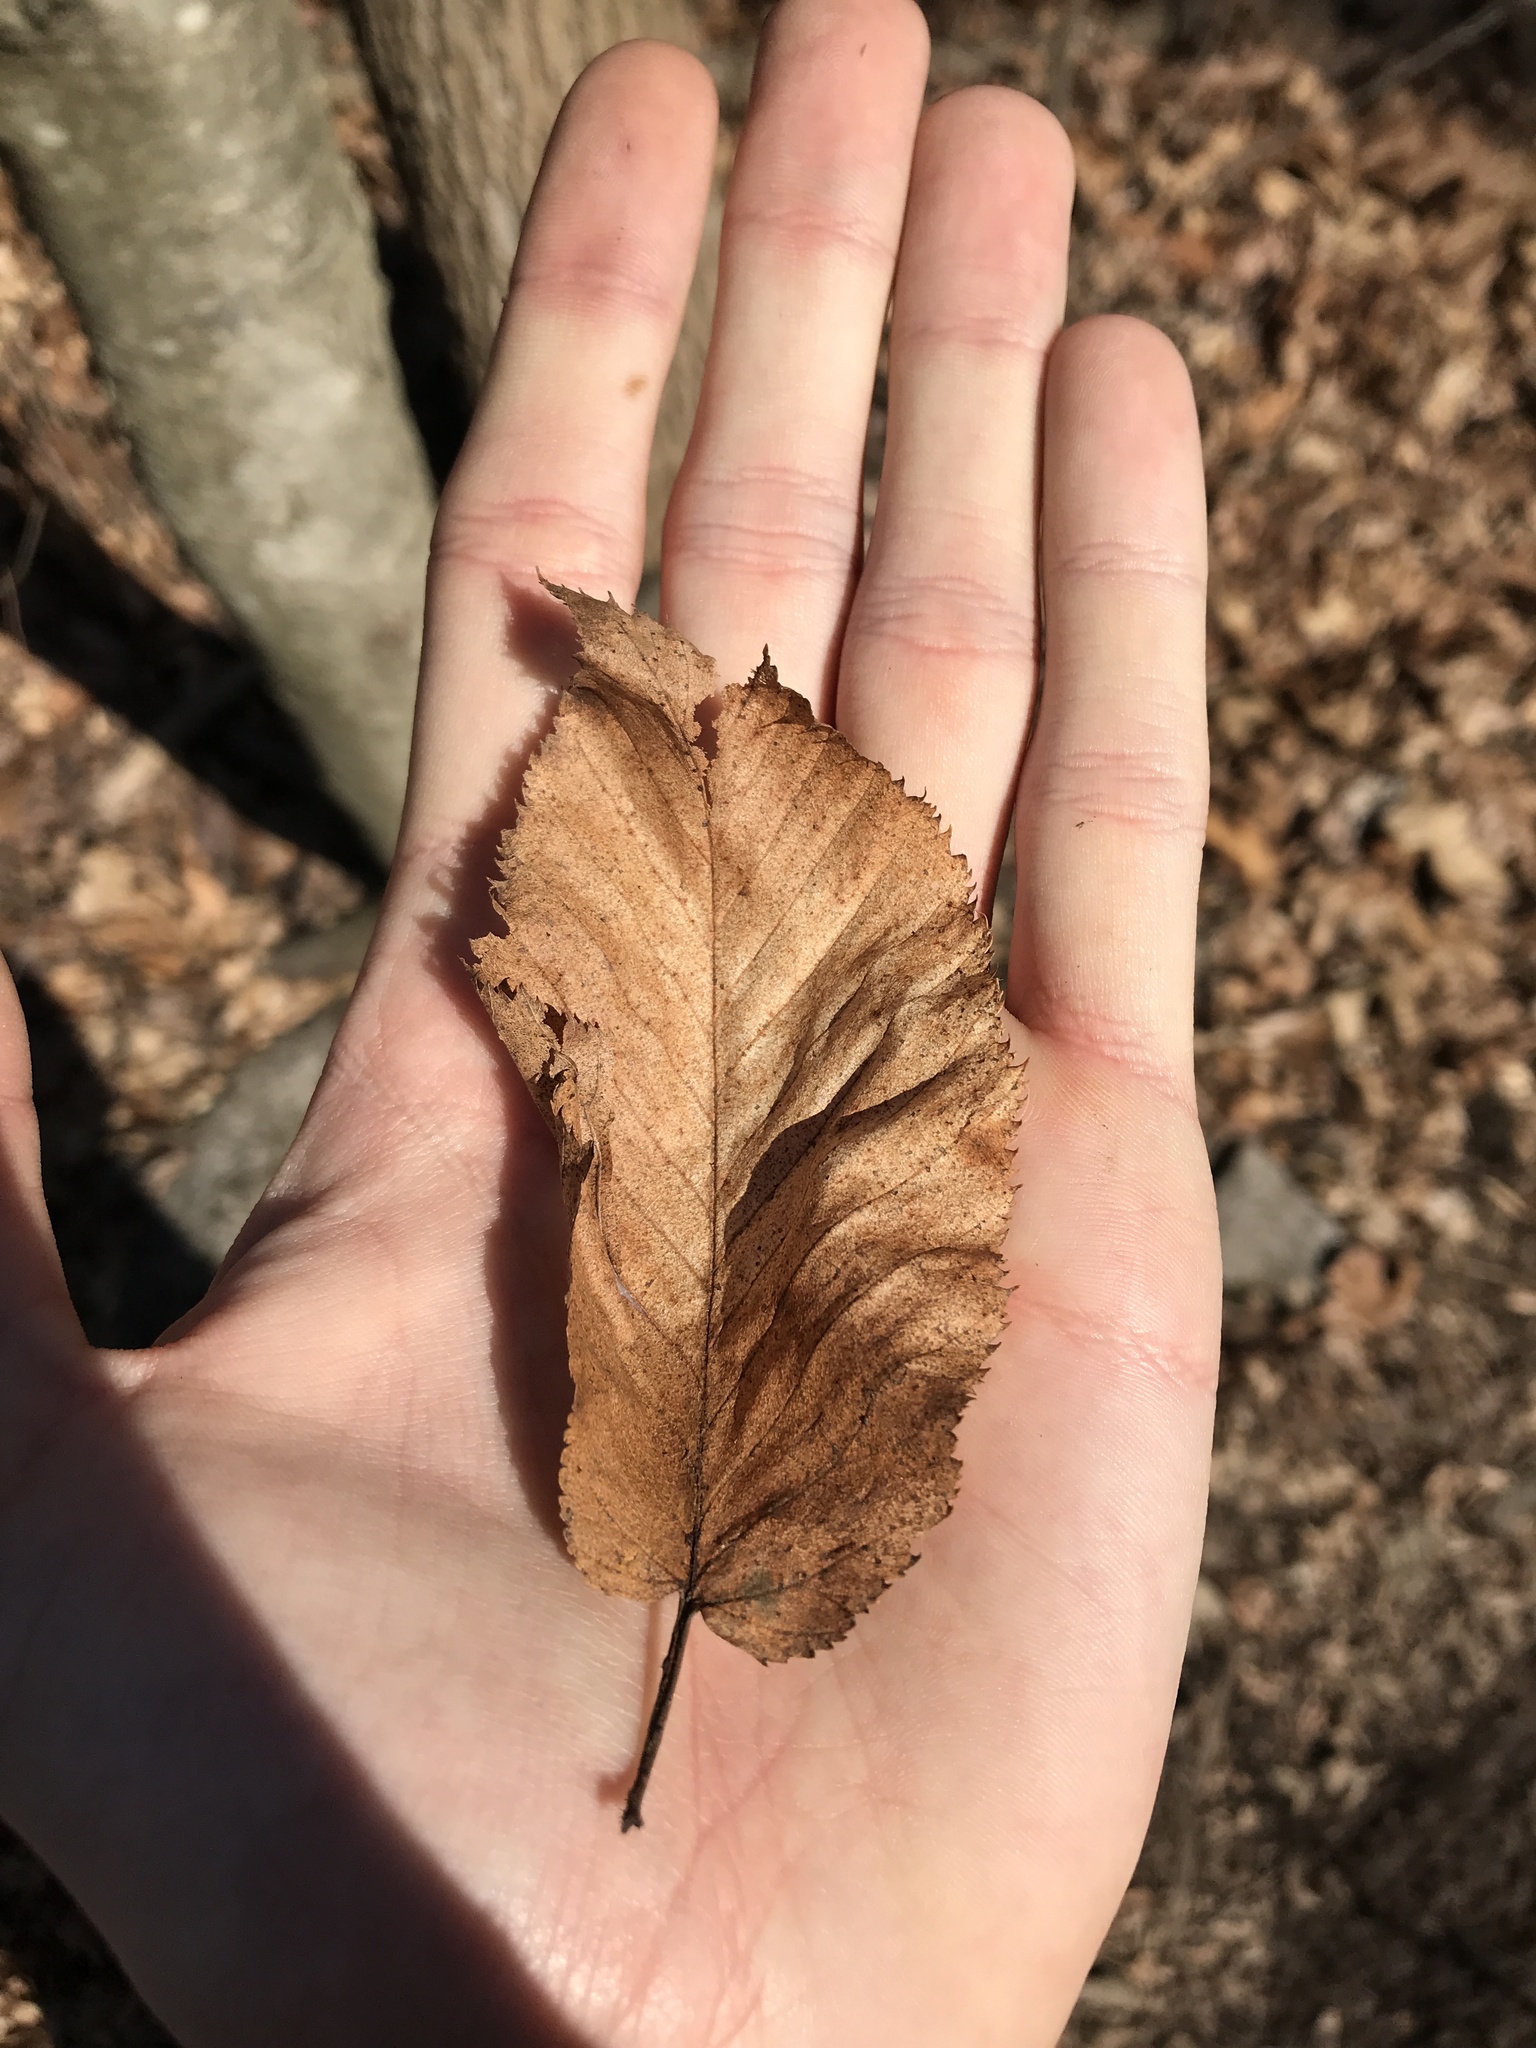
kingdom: Plantae
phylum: Tracheophyta
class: Magnoliopsida
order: Fagales
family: Betulaceae
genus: Betula
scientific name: Betula lenta
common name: Black birch
